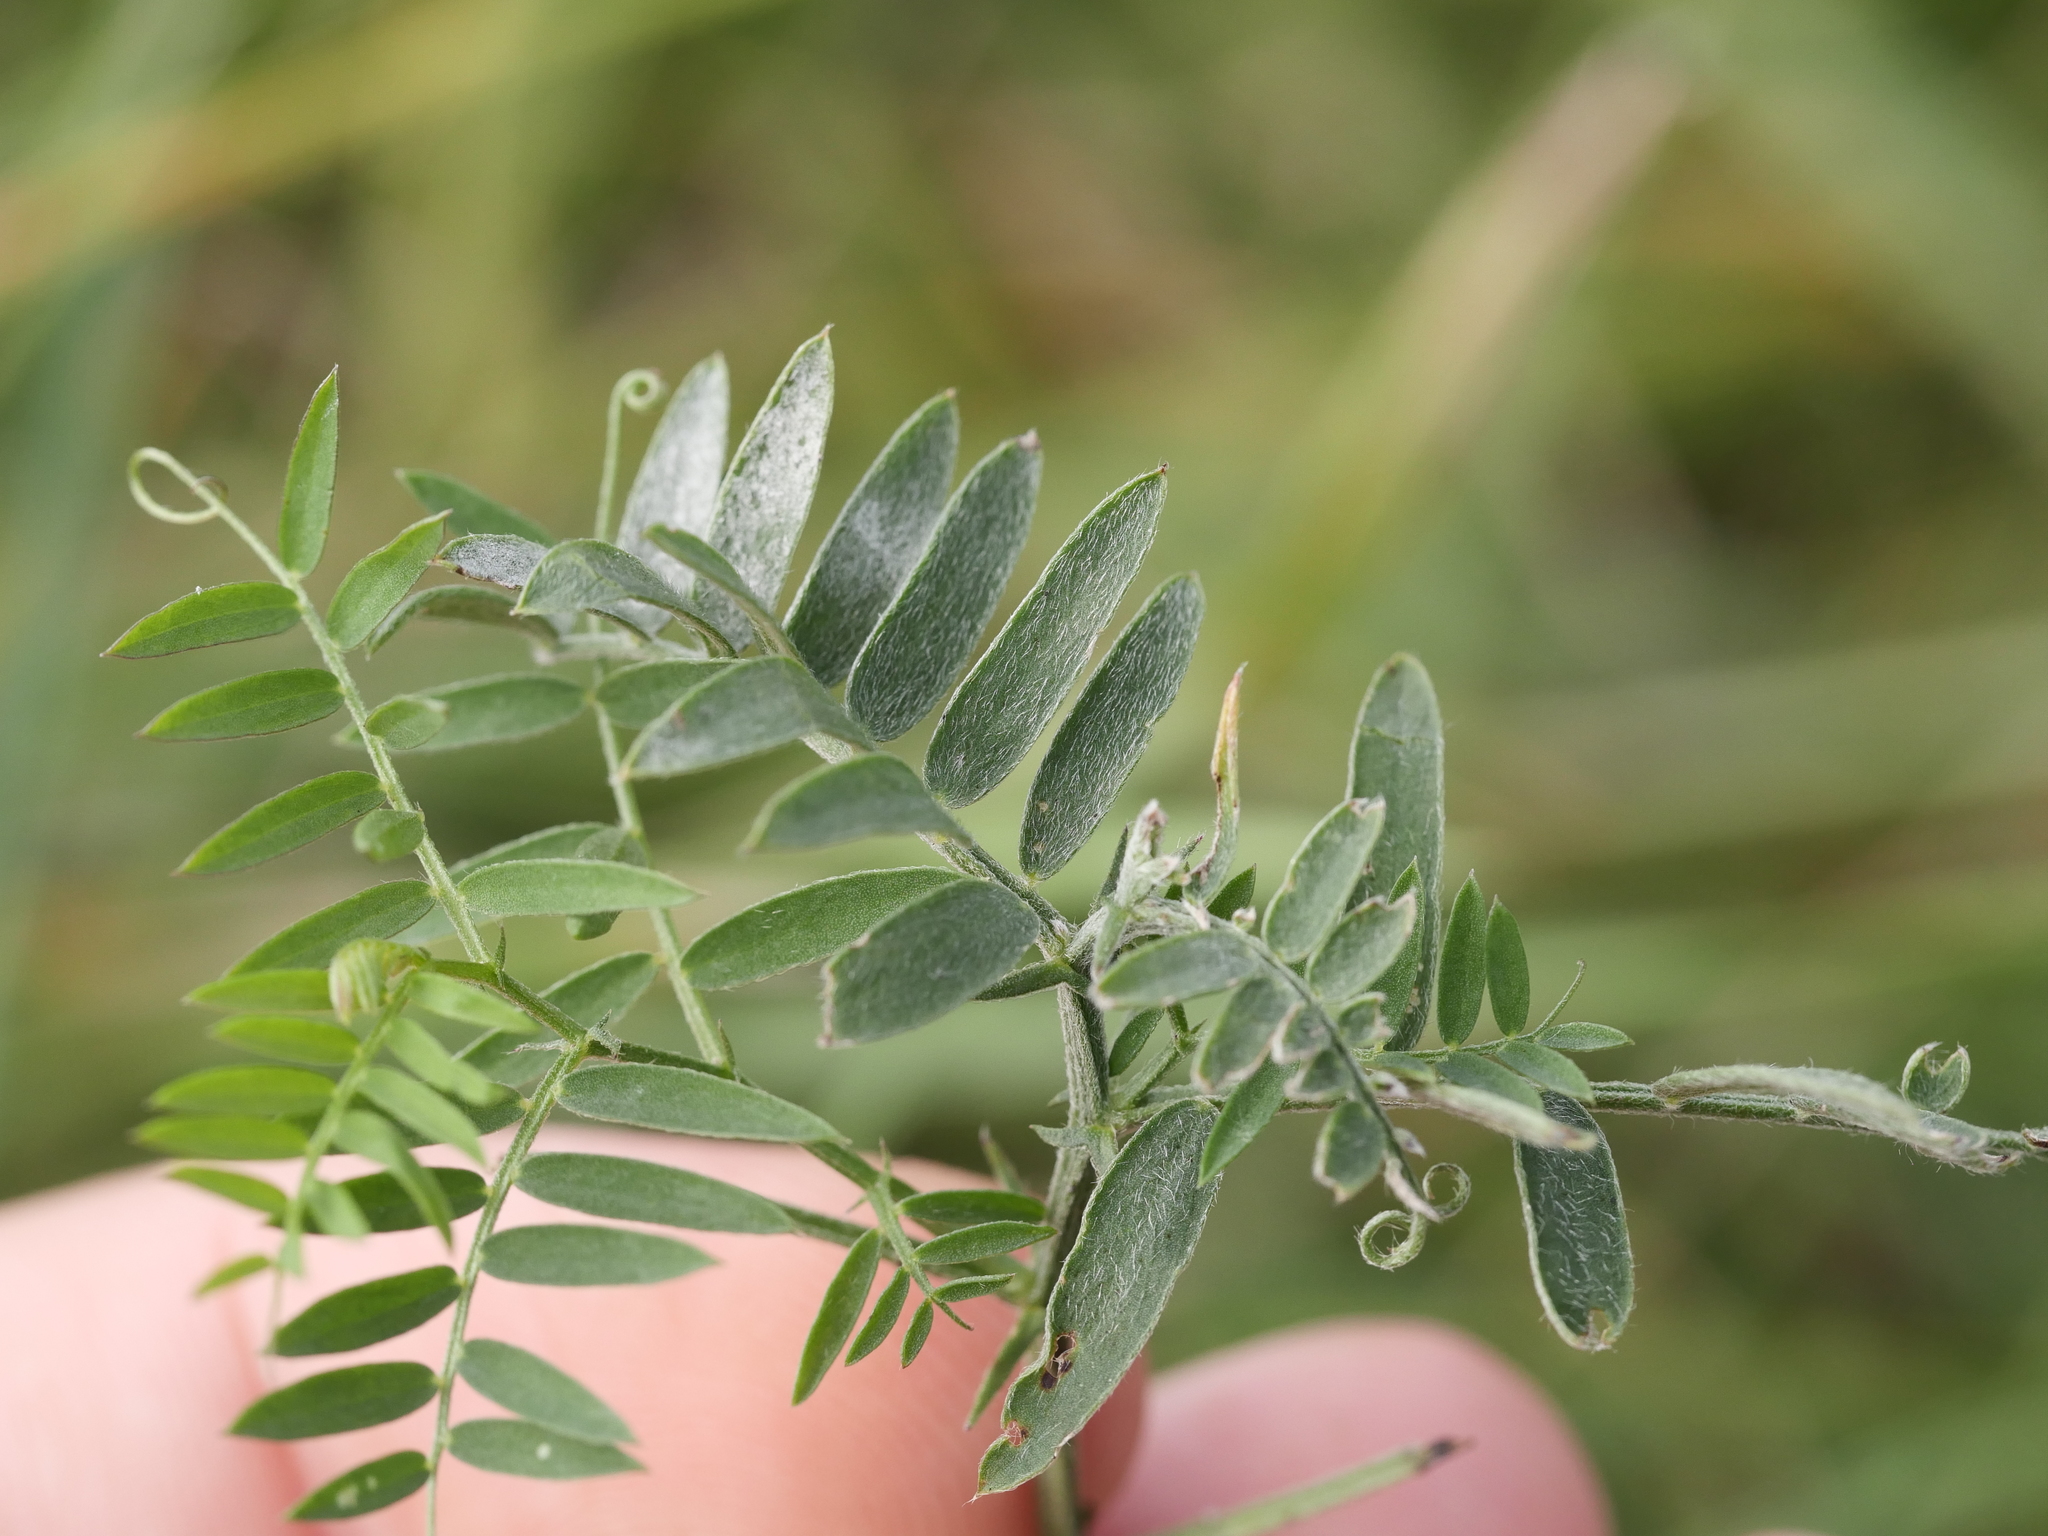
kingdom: Plantae
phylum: Tracheophyta
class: Magnoliopsida
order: Fabales
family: Fabaceae
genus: Vicia
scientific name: Vicia cracca
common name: Bird vetch
